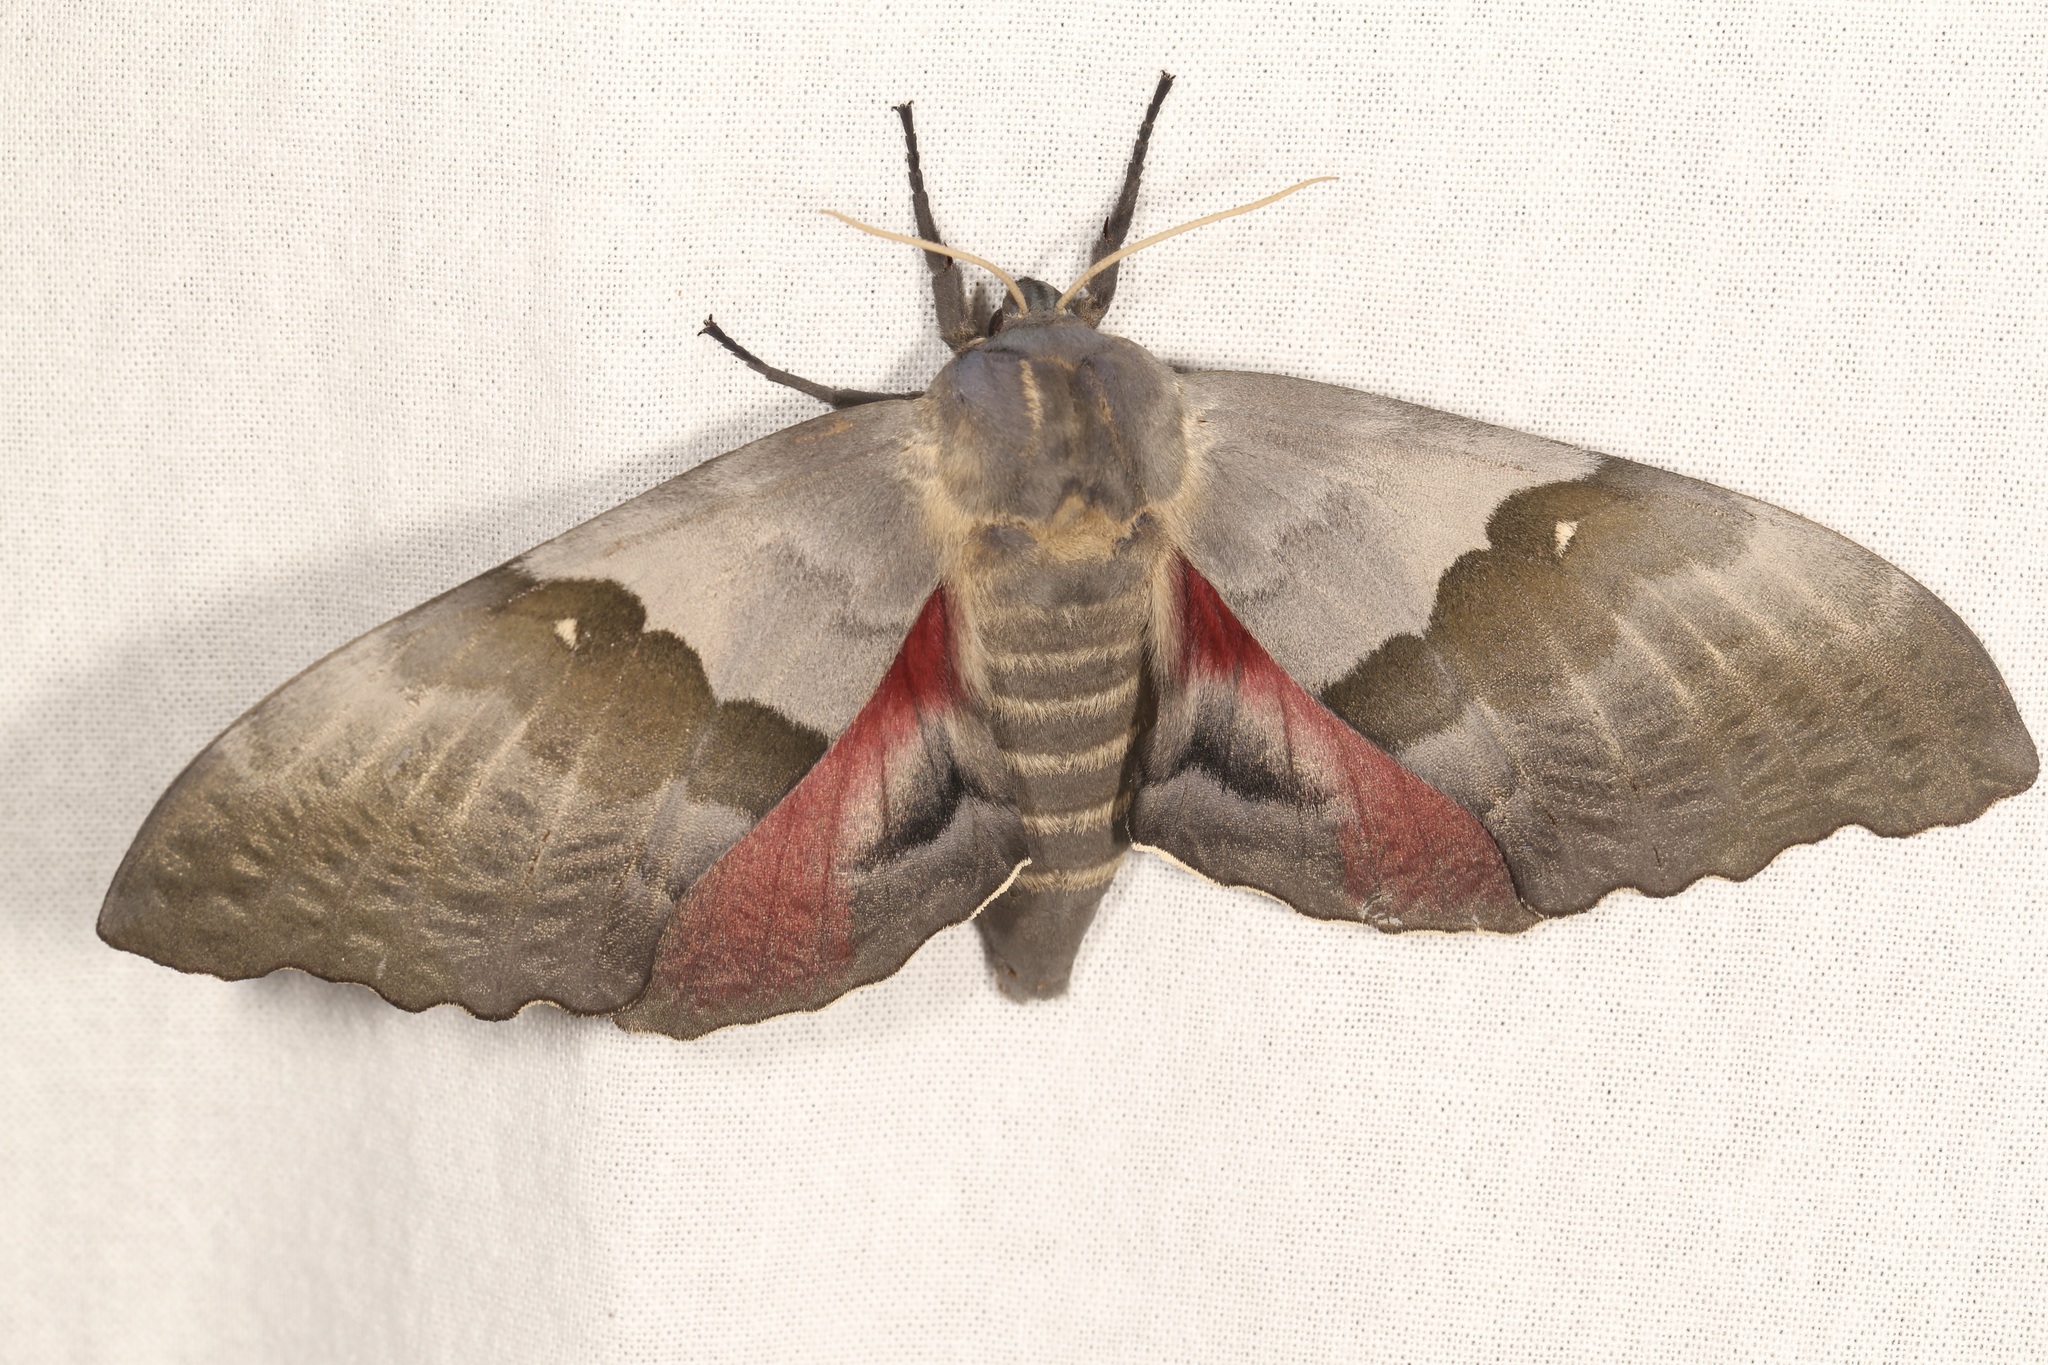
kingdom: Animalia
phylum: Arthropoda
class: Insecta
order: Lepidoptera
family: Sphingidae
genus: Pachysphinx
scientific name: Pachysphinx modesta
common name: Big poplar sphinx
